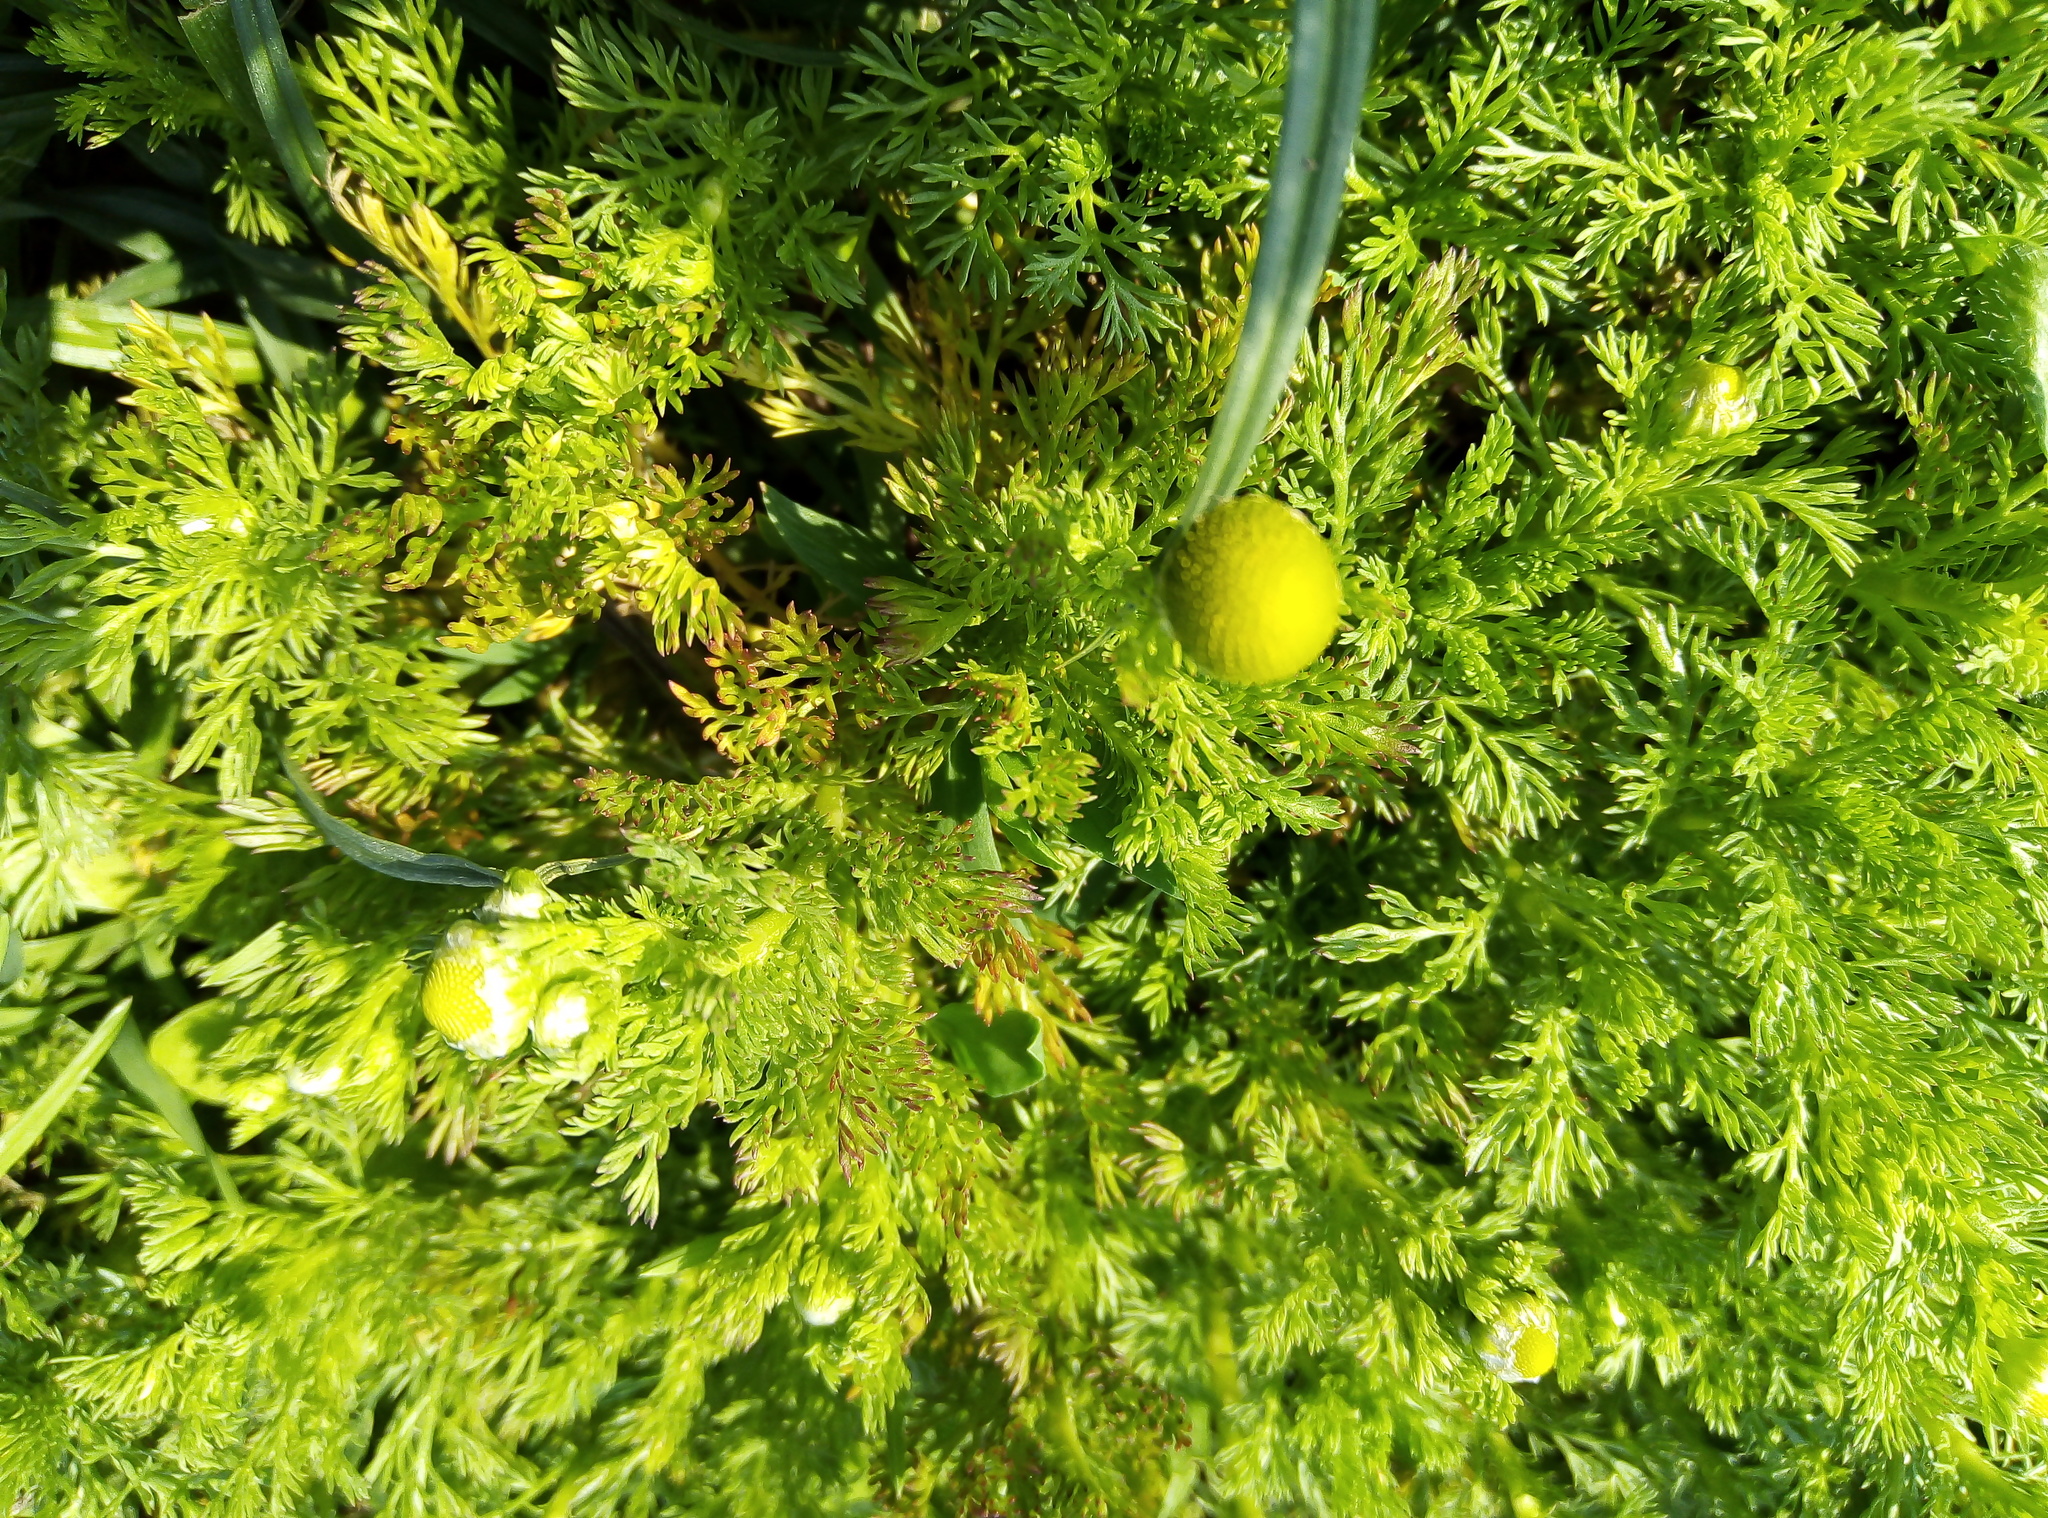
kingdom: Plantae
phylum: Tracheophyta
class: Magnoliopsida
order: Asterales
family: Asteraceae
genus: Matricaria
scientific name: Matricaria discoidea
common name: Disc mayweed
